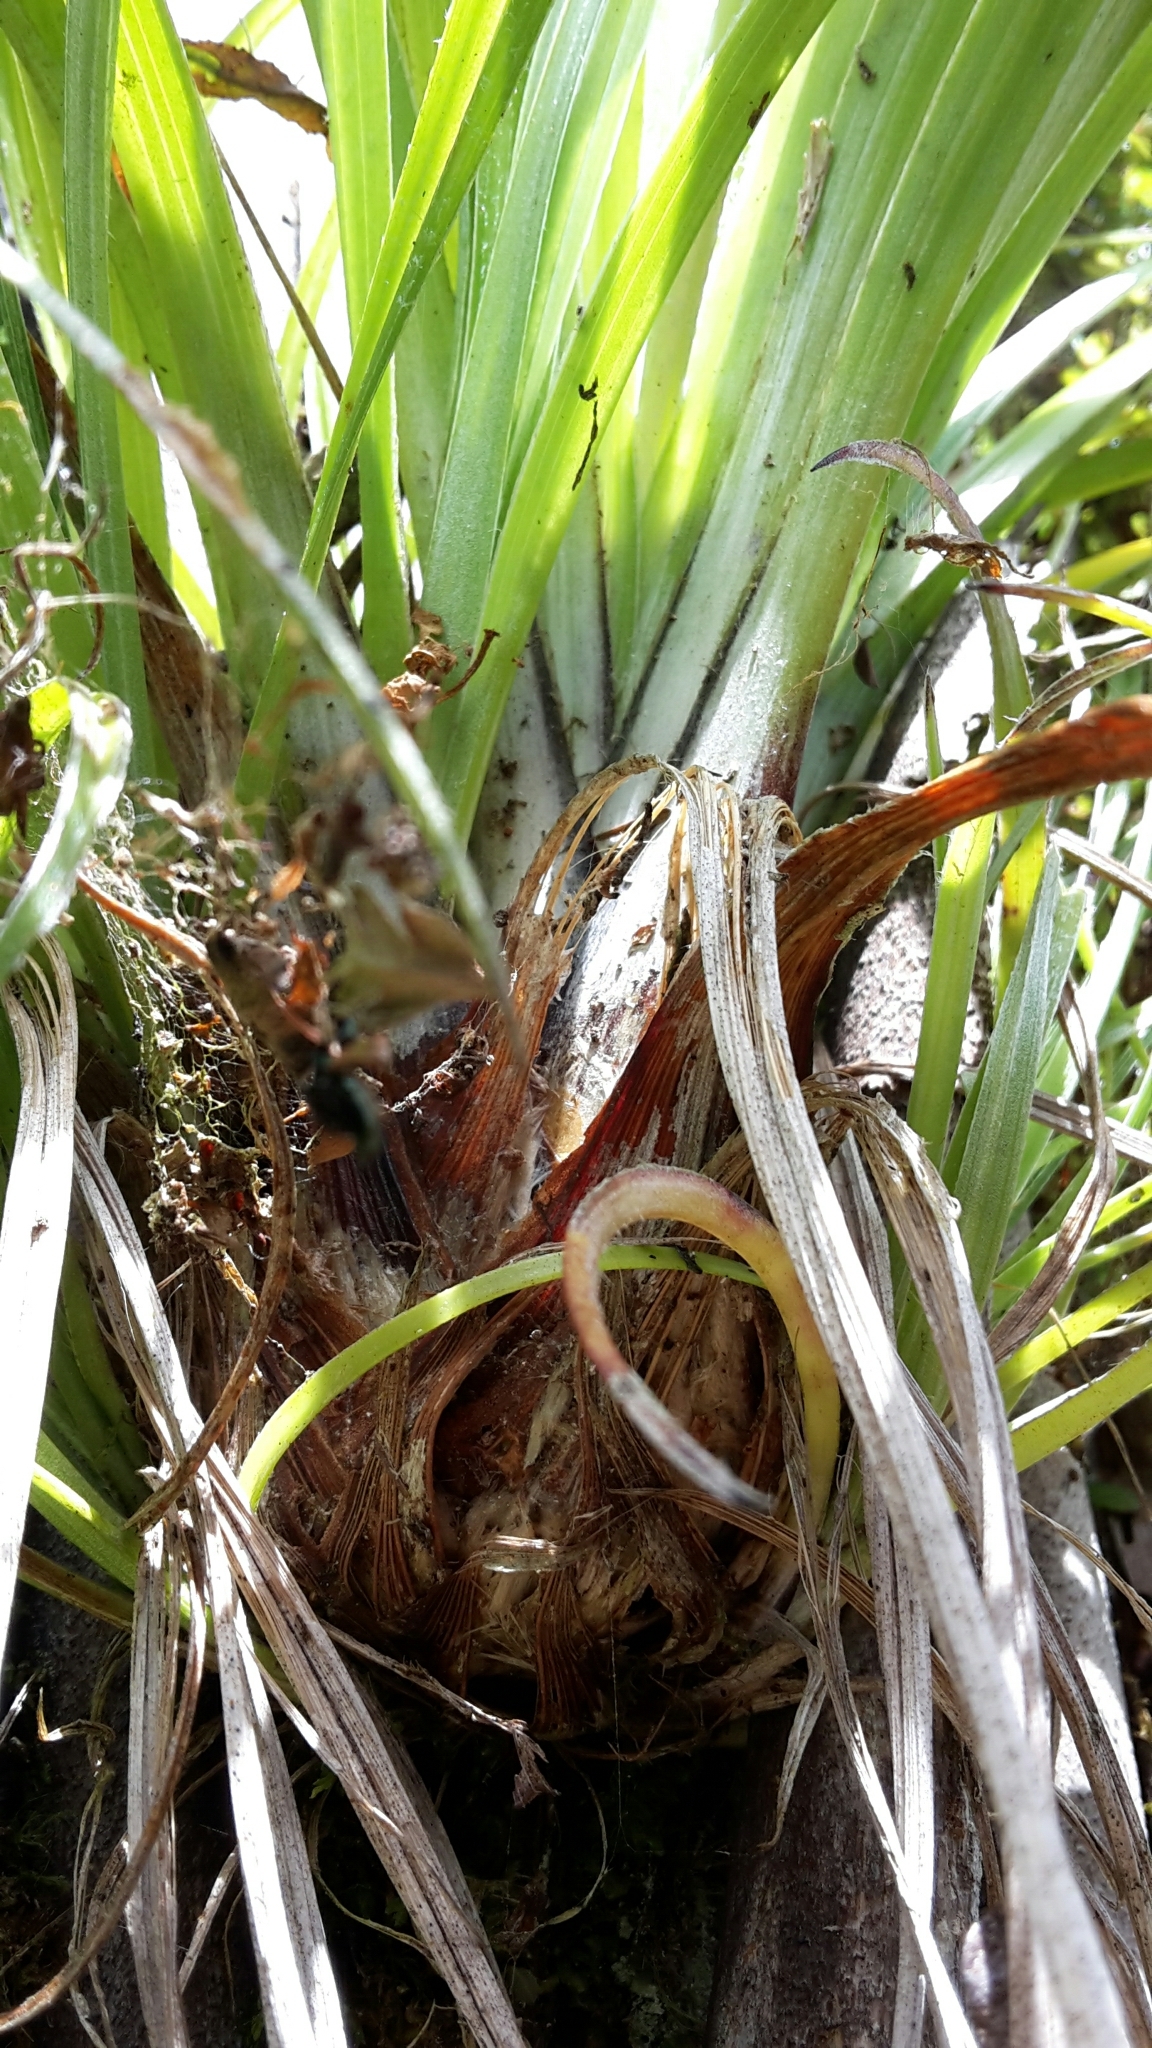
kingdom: Plantae
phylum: Tracheophyta
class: Liliopsida
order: Asparagales
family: Asteliaceae
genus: Astelia
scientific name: Astelia solandri
